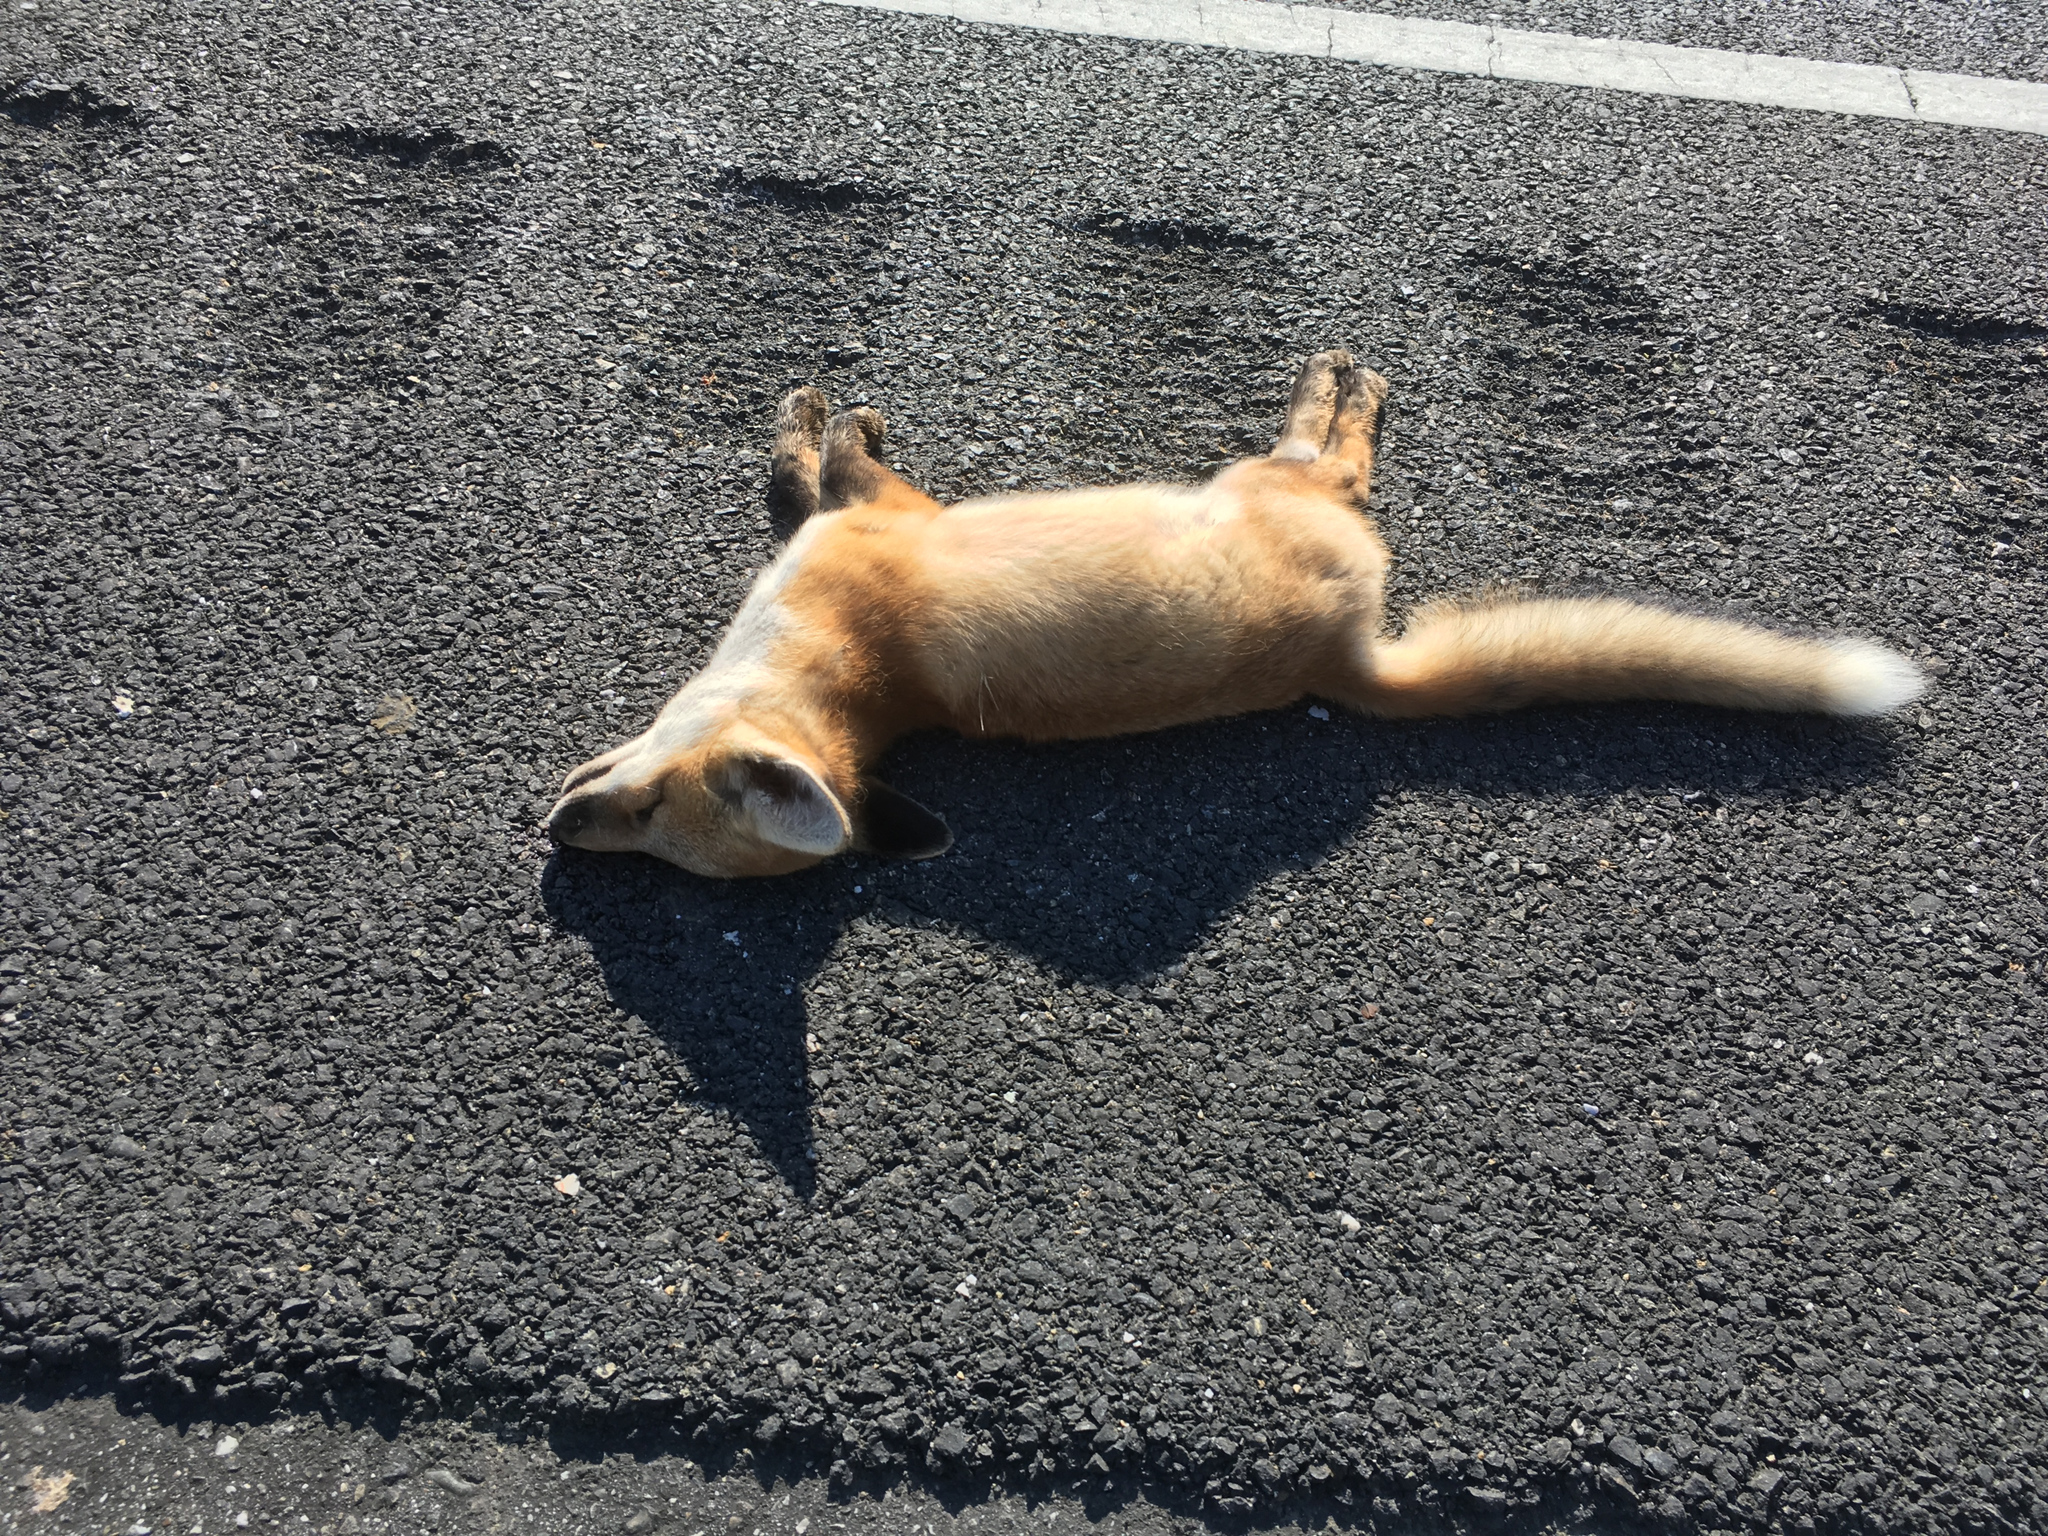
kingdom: Animalia
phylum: Chordata
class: Mammalia
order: Carnivora
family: Canidae
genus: Vulpes
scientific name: Vulpes vulpes
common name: Red fox
